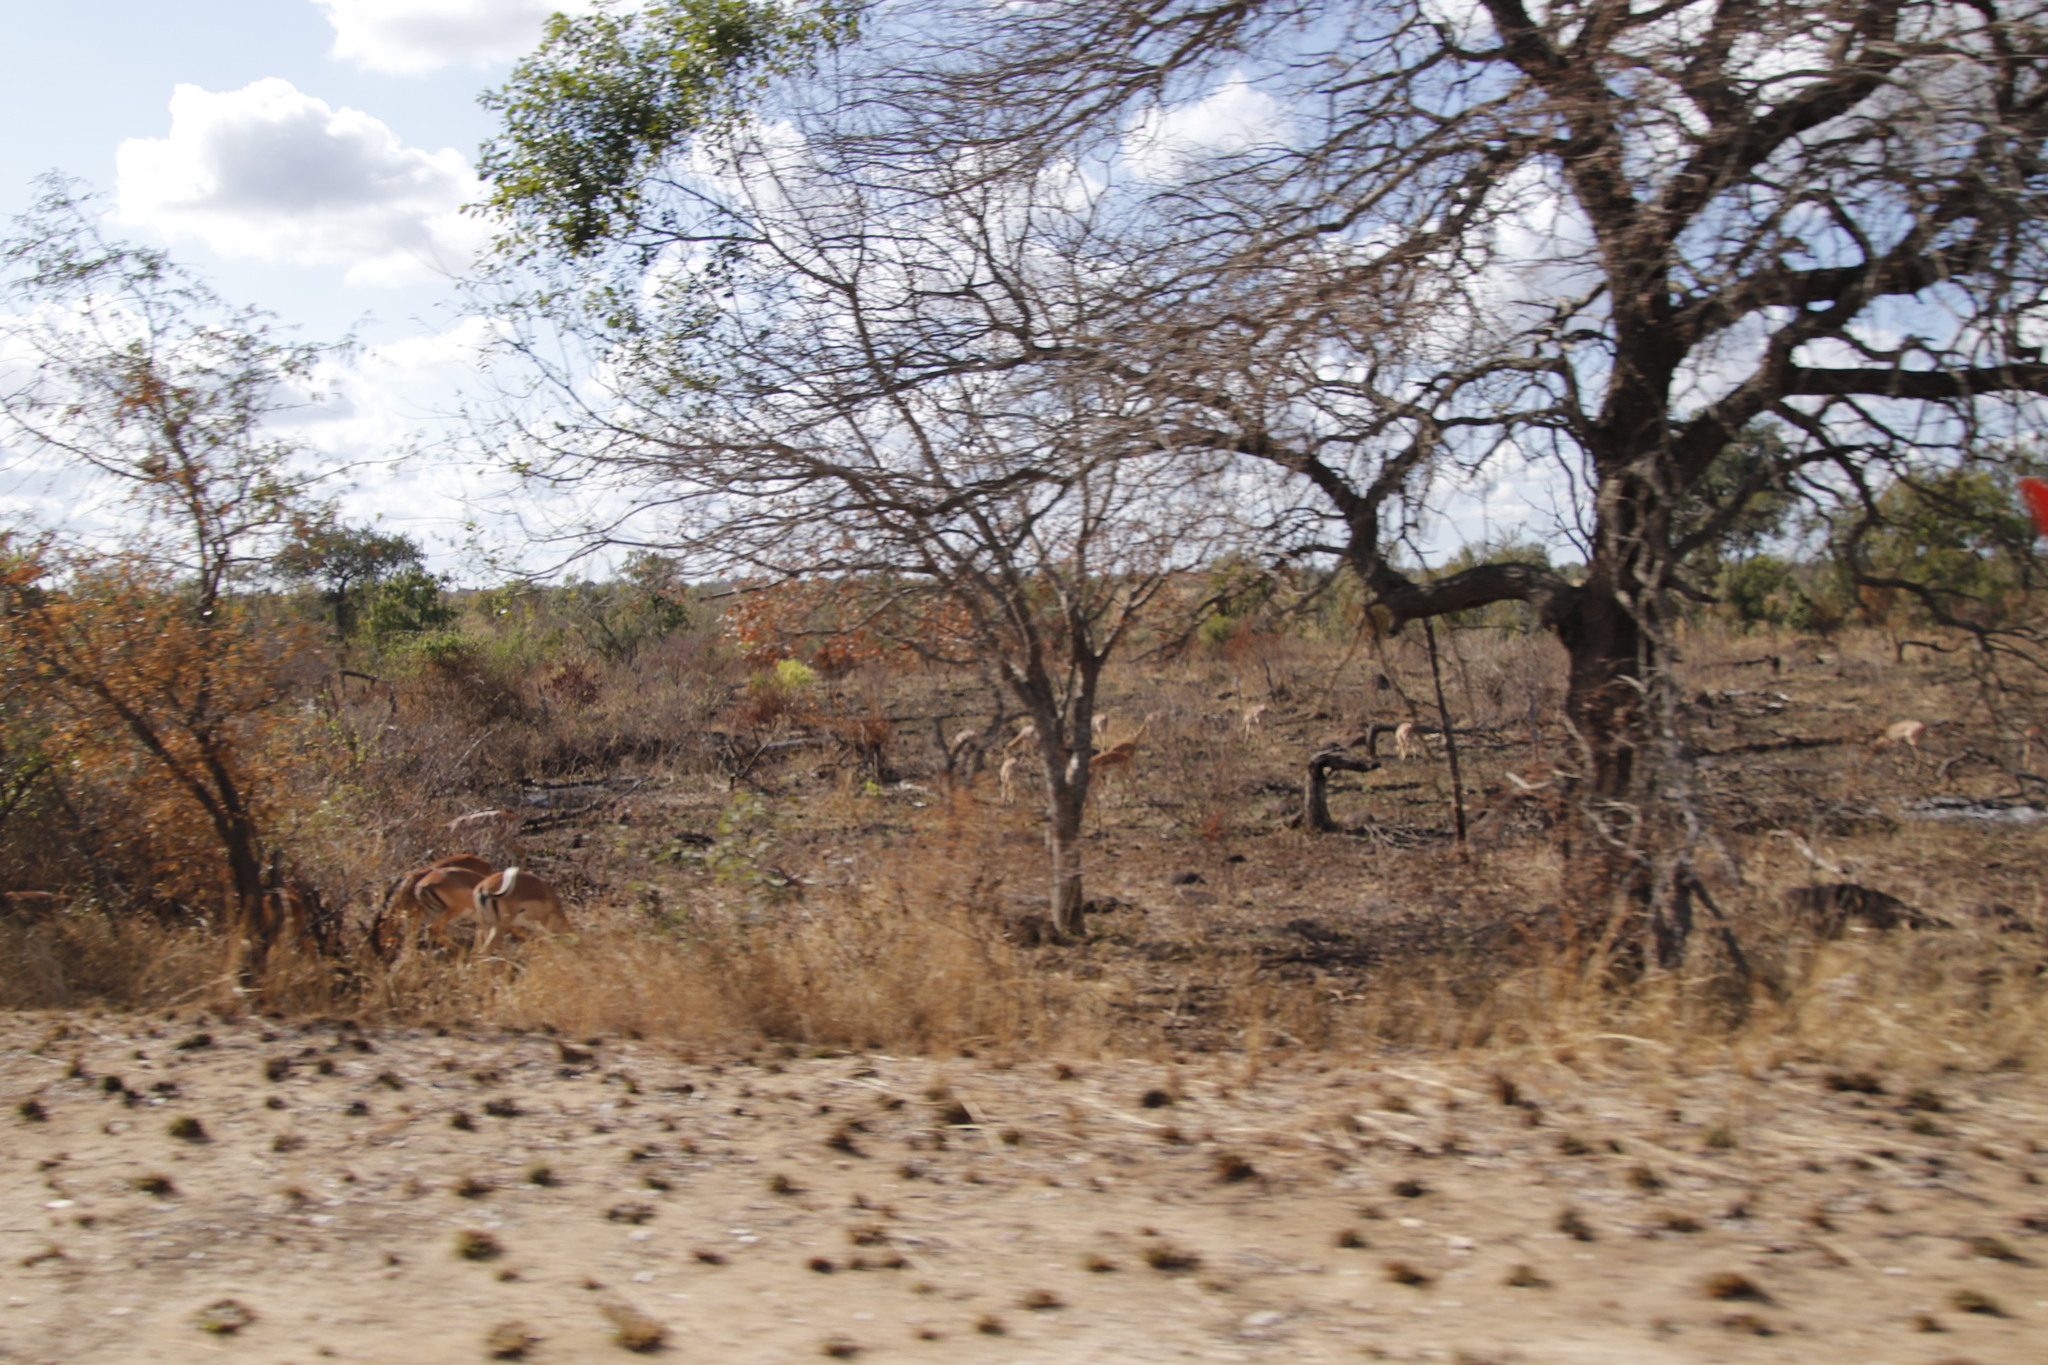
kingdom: Animalia
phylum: Chordata
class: Mammalia
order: Artiodactyla
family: Bovidae
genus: Aepyceros
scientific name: Aepyceros melampus
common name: Impala
